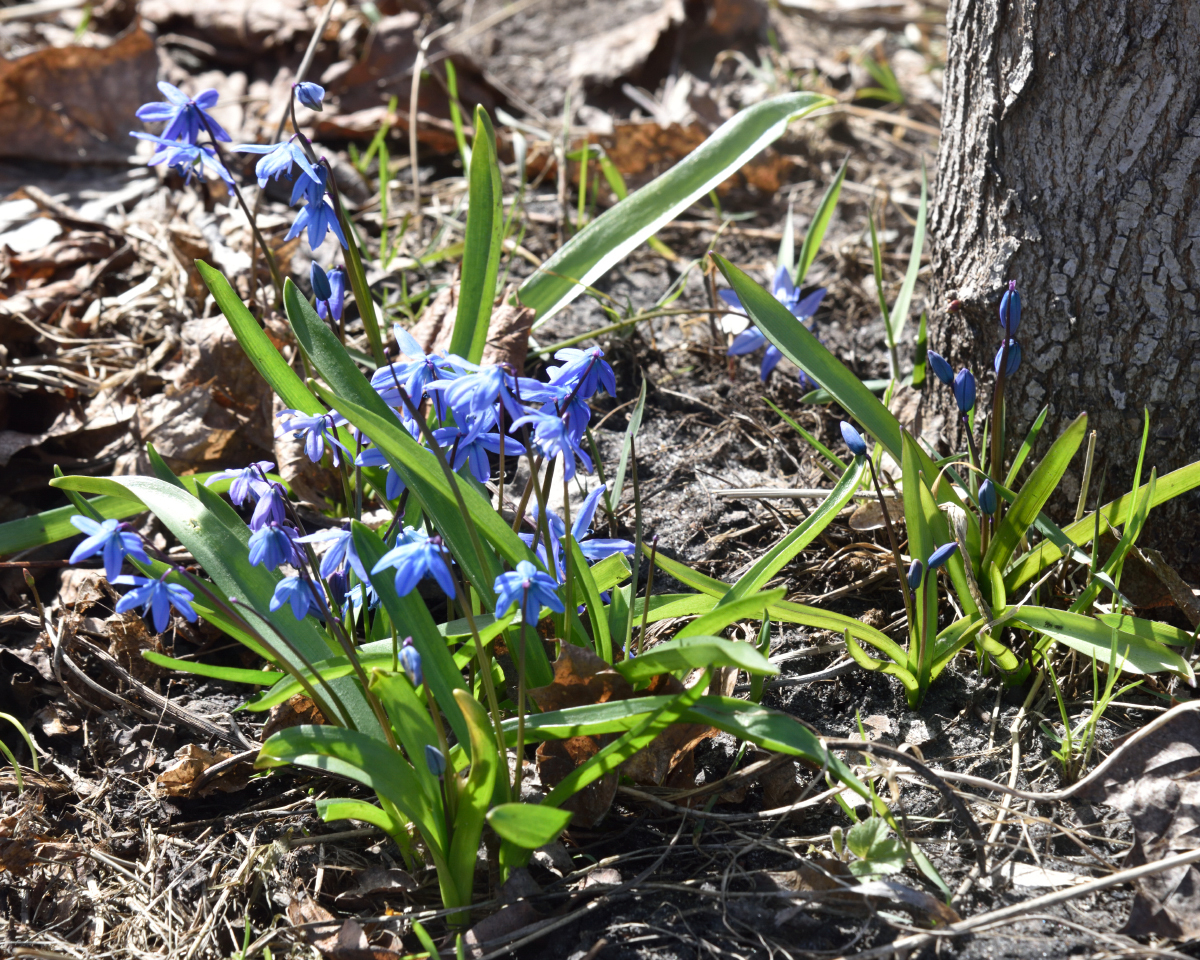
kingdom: Plantae
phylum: Tracheophyta
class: Liliopsida
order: Asparagales
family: Asparagaceae
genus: Scilla
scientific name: Scilla siberica
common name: Siberian squill
